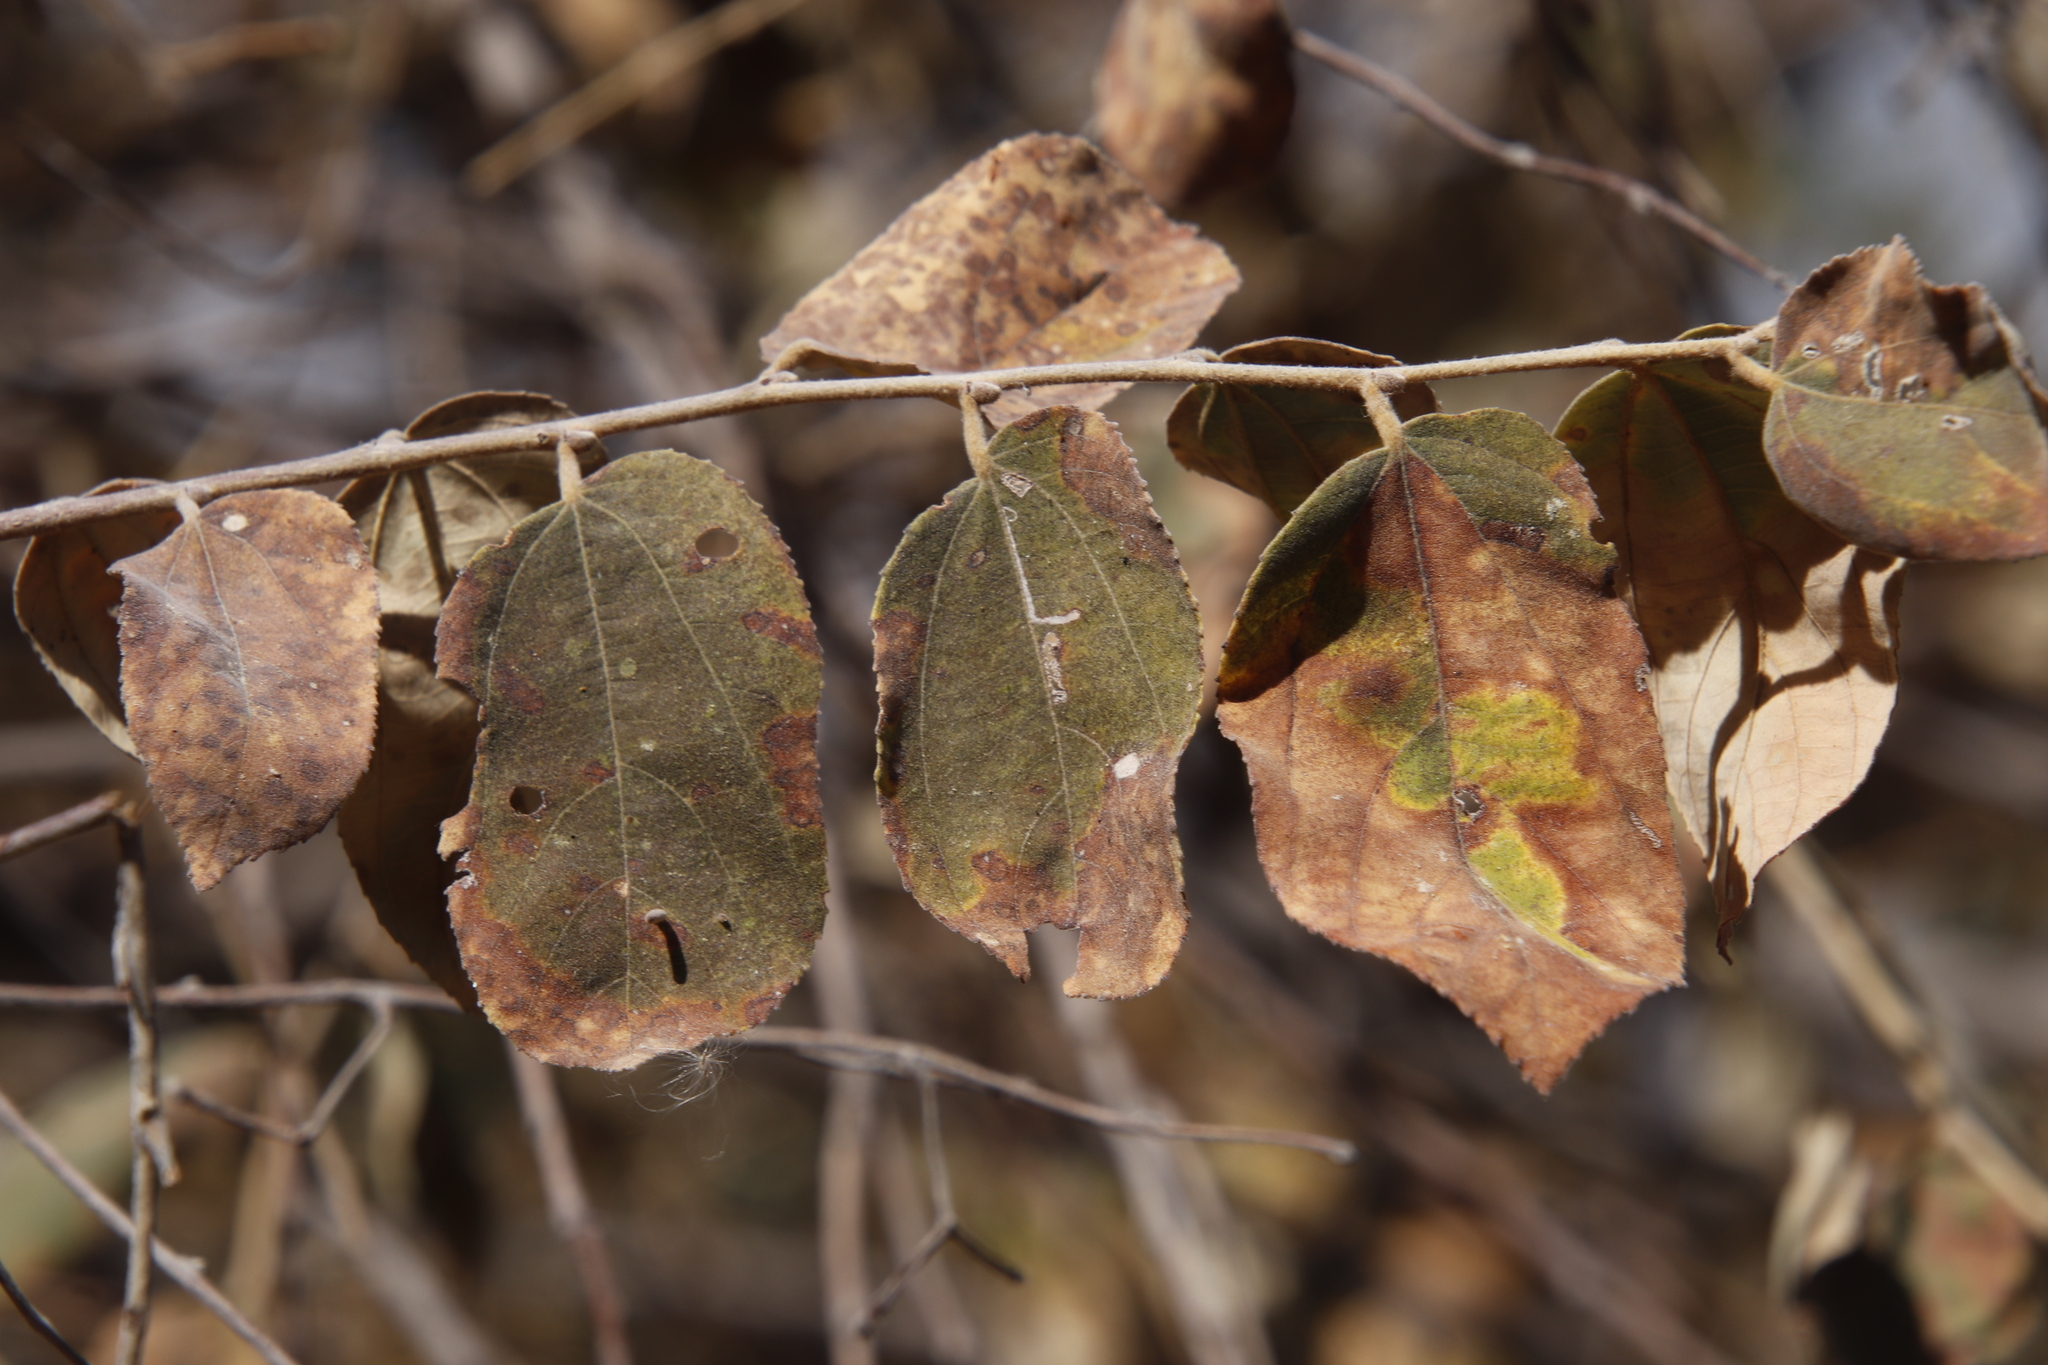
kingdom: Plantae
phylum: Tracheophyta
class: Magnoliopsida
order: Malvales
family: Malvaceae
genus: Grewia
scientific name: Grewia monticola
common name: Grey raisin
